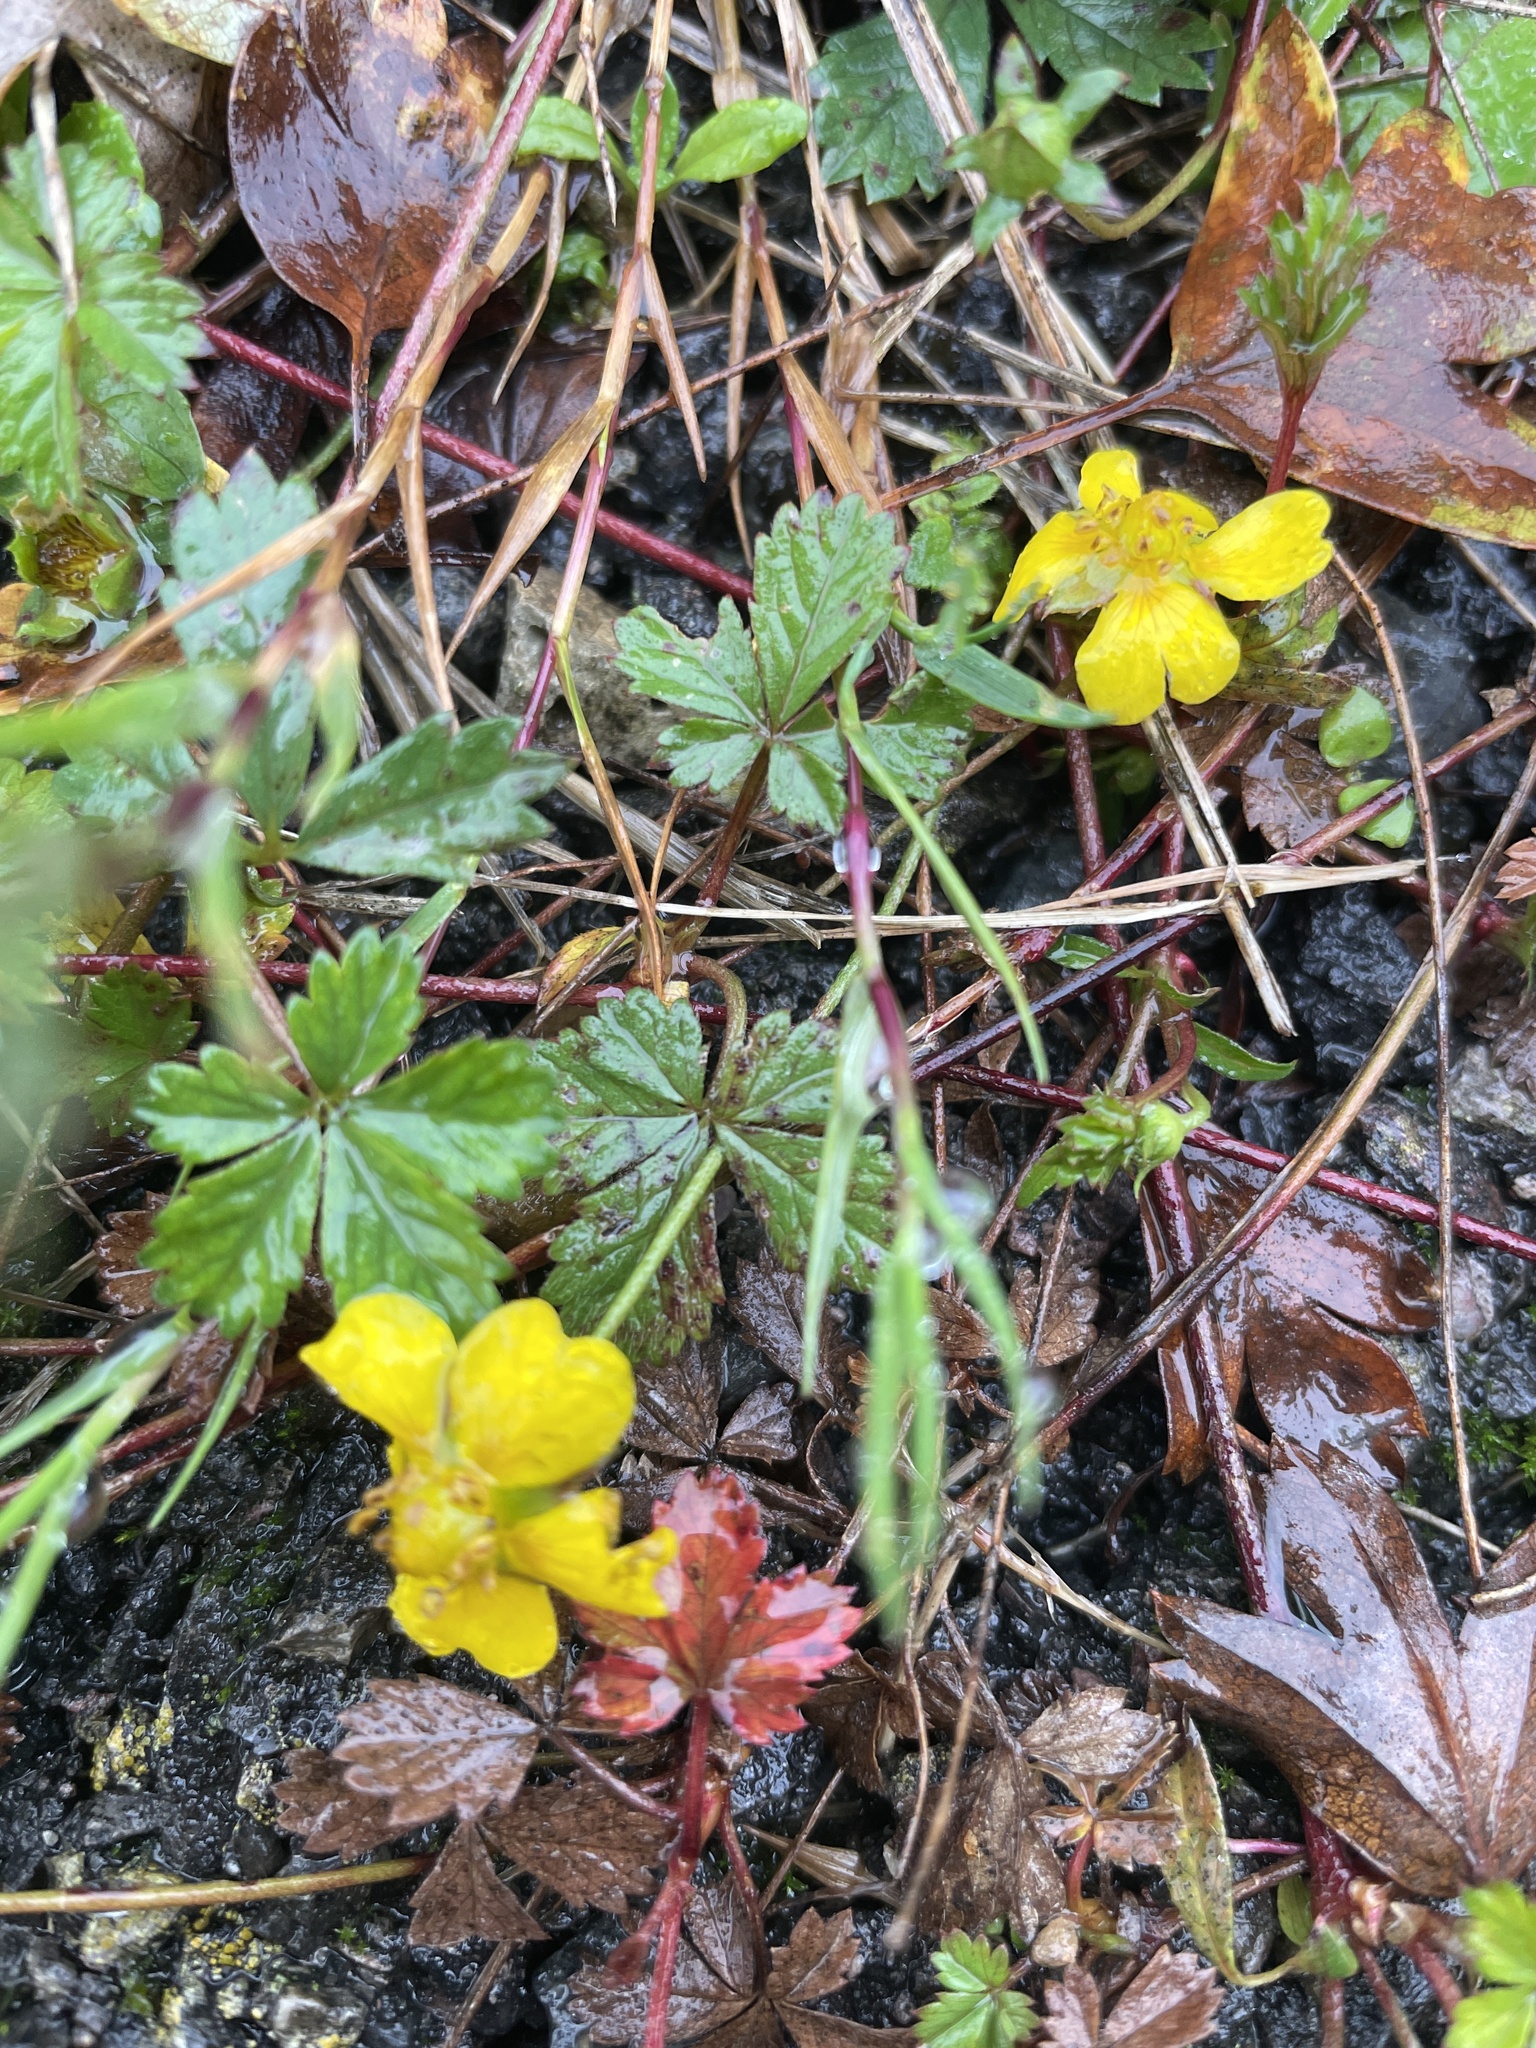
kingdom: Plantae
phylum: Tracheophyta
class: Magnoliopsida
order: Rosales
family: Rosaceae
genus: Potentilla
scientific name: Potentilla reptans
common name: Creeping cinquefoil
